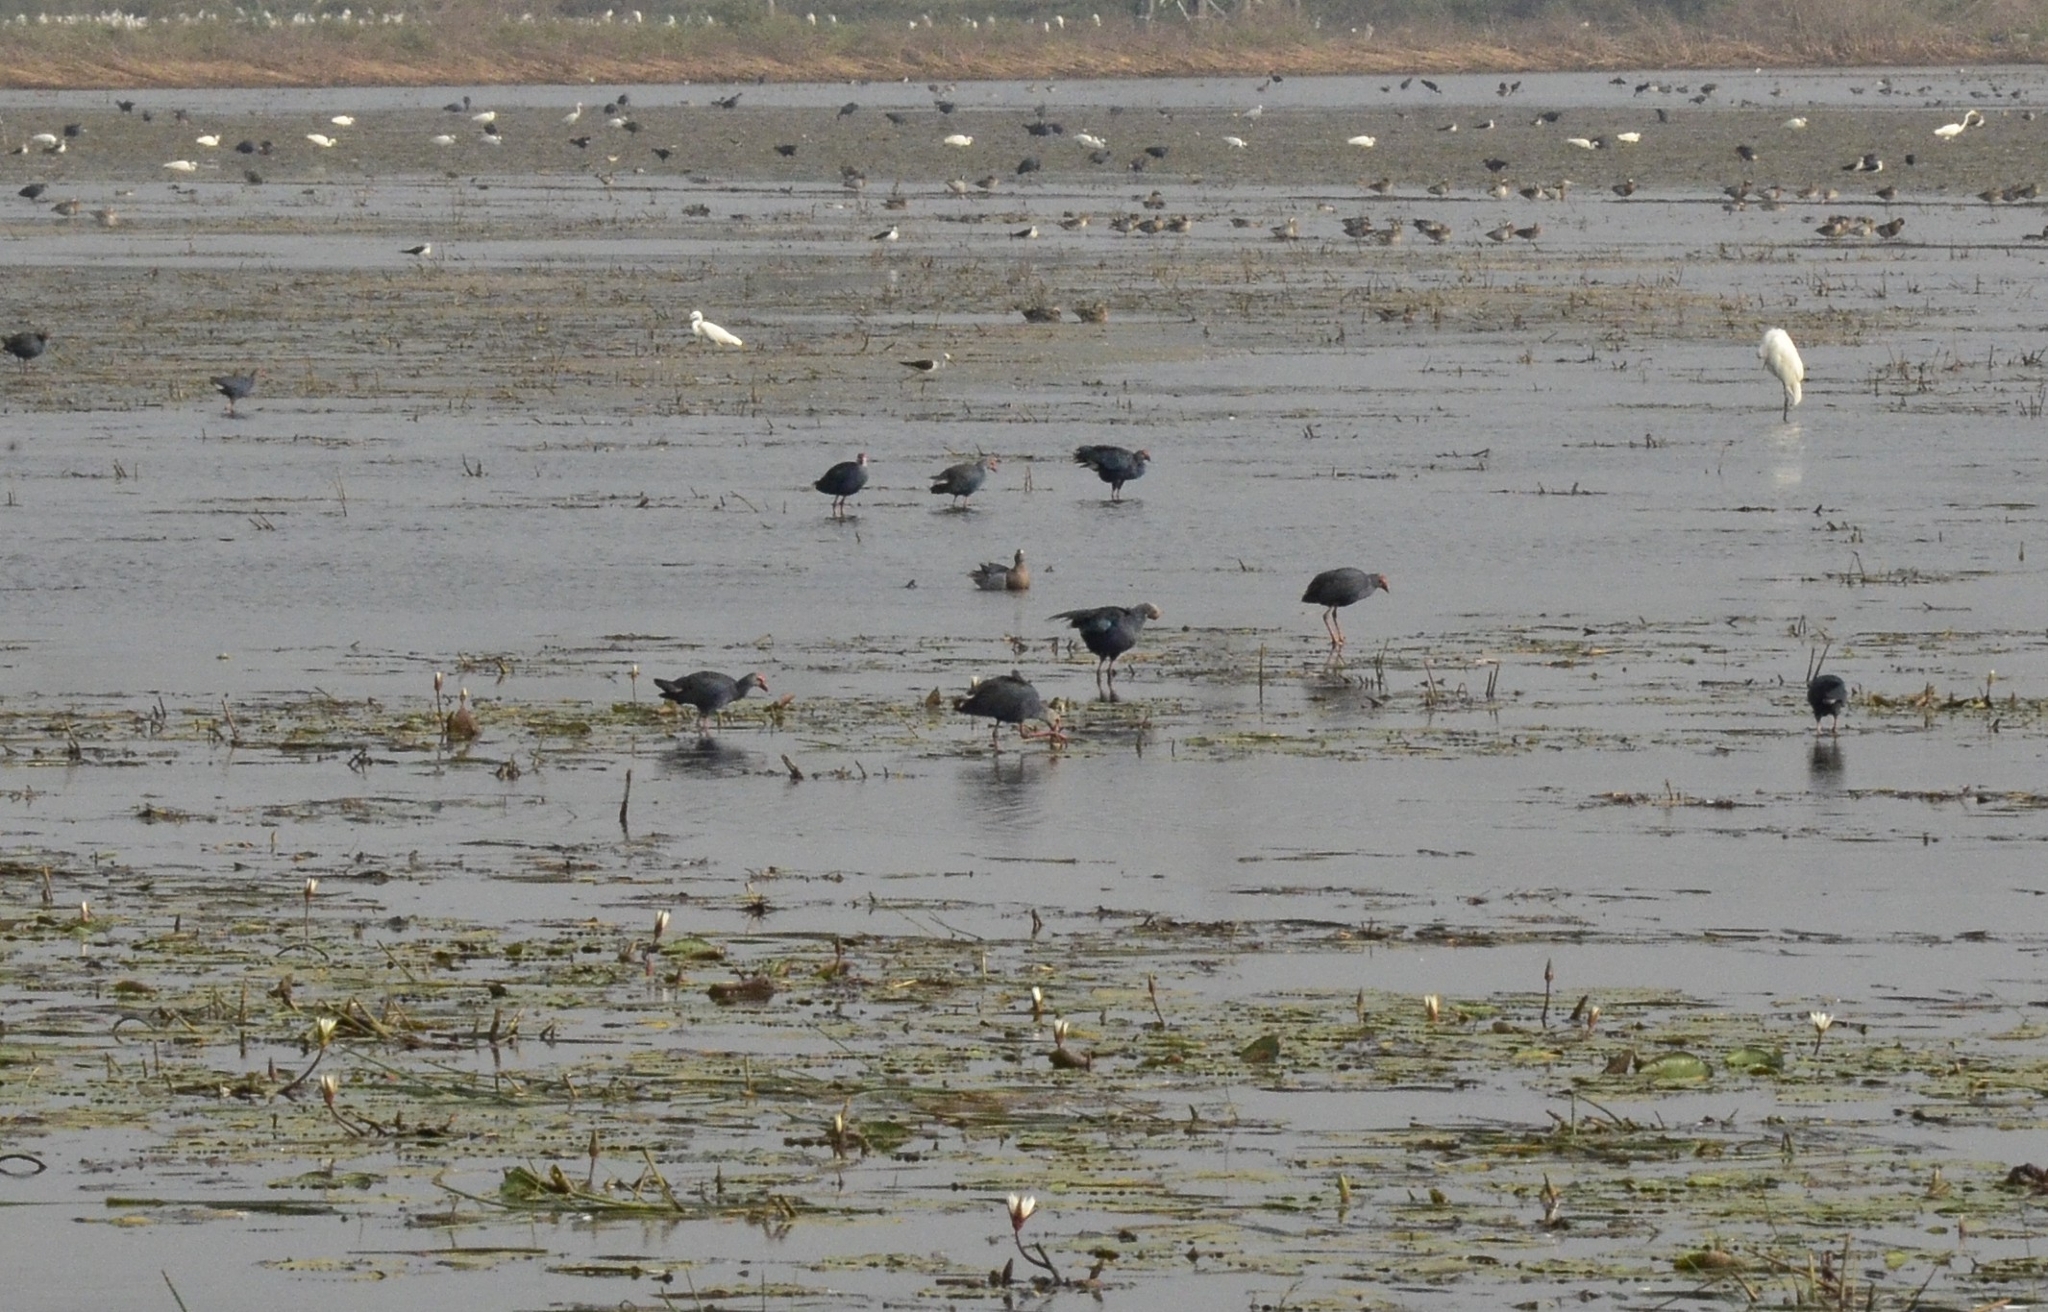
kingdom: Animalia
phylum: Chordata
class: Aves
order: Gruiformes
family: Rallidae
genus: Porphyrio
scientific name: Porphyrio porphyrio
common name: Purple swamphen
